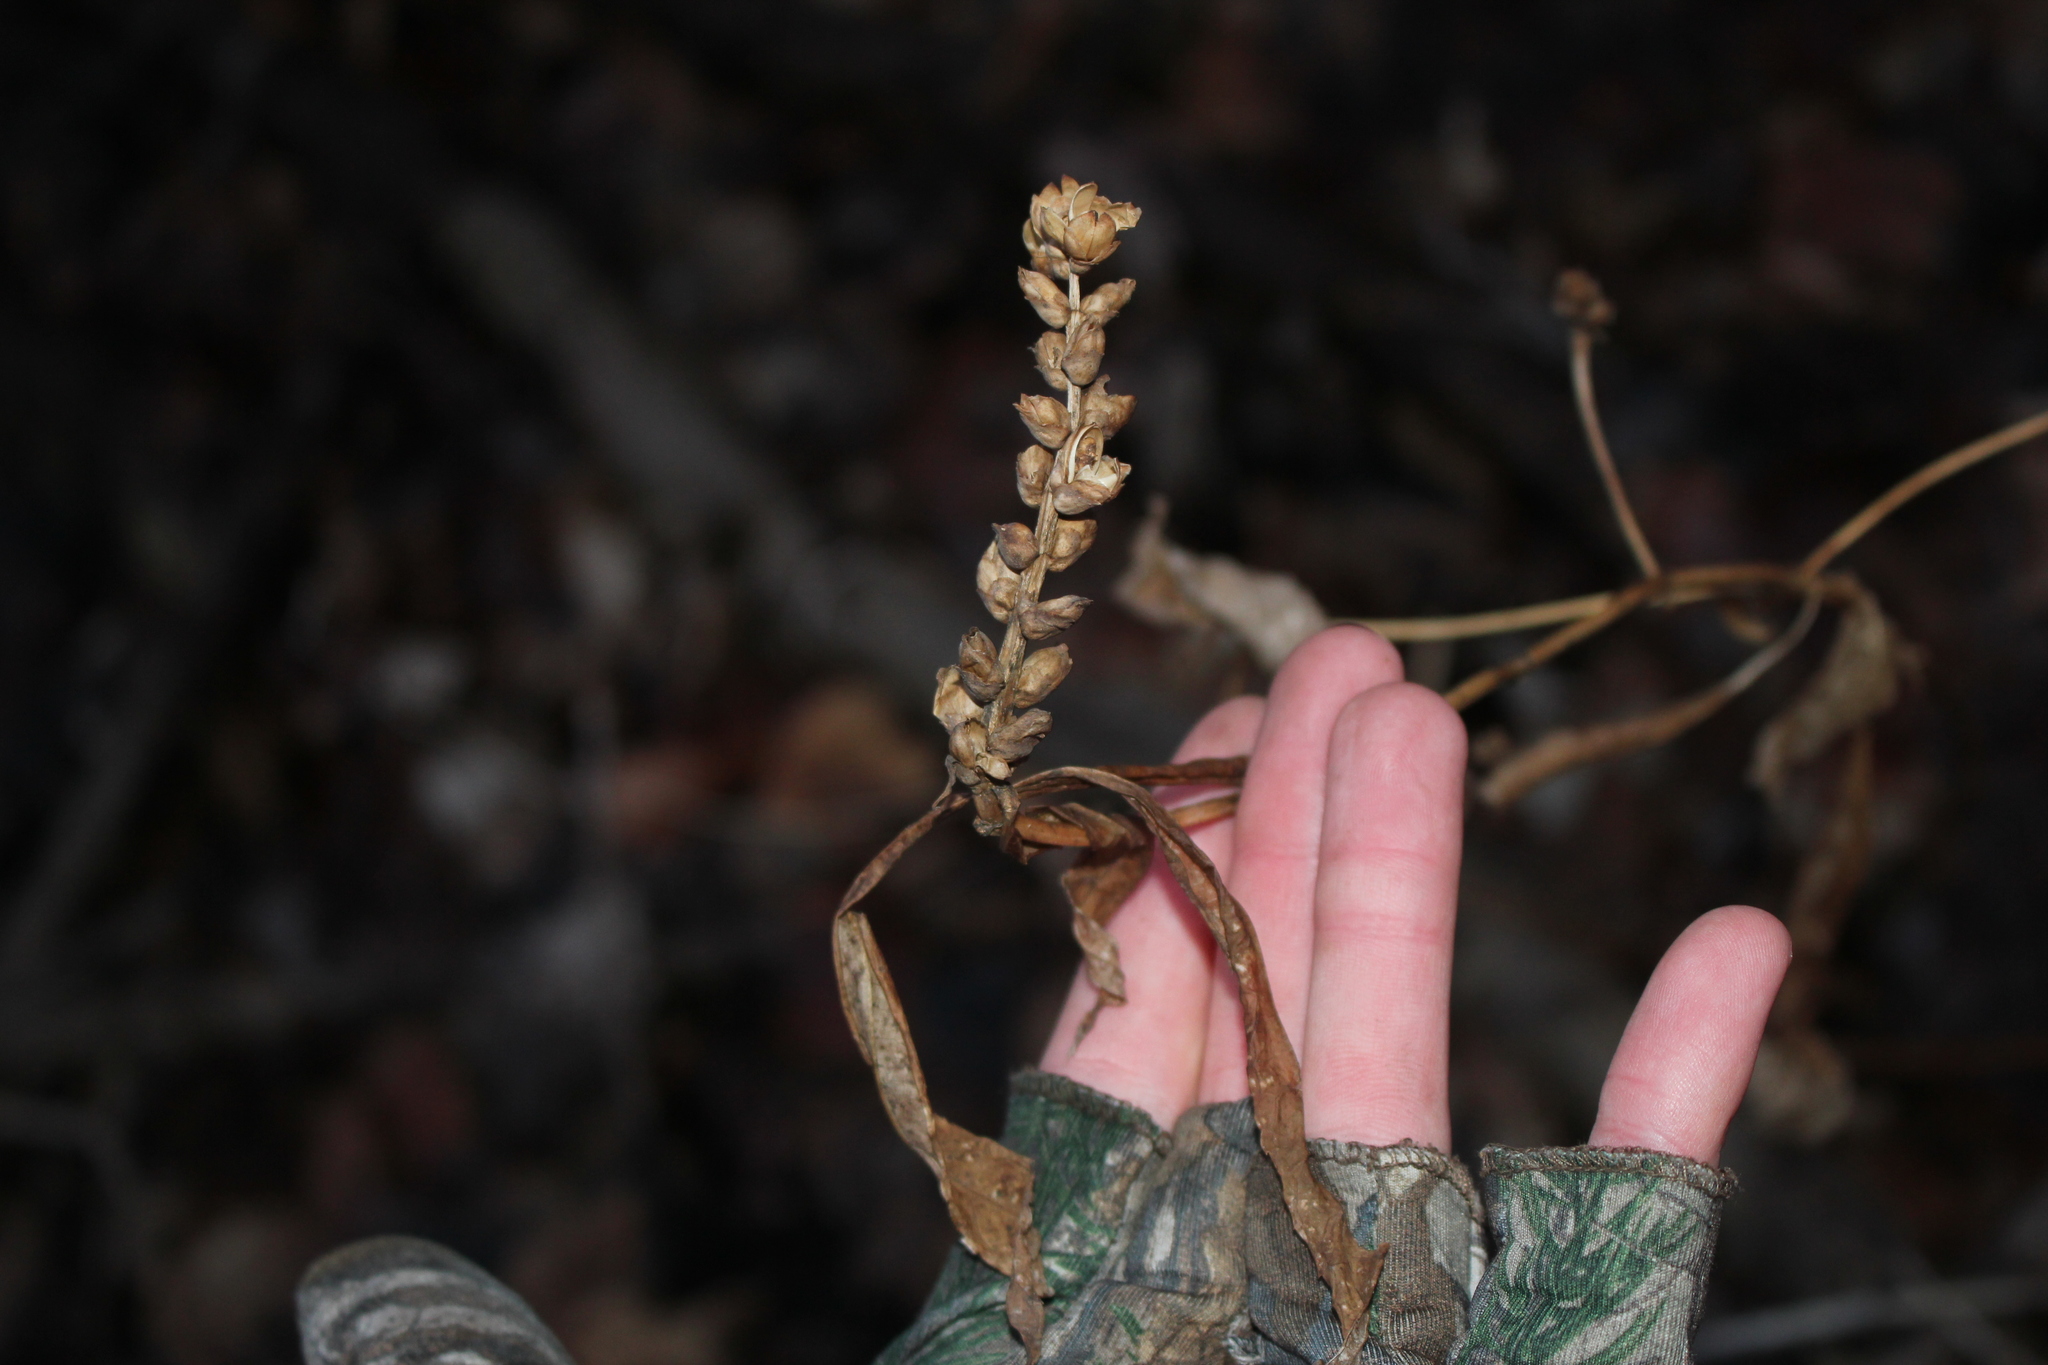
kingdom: Plantae
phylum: Tracheophyta
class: Magnoliopsida
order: Lamiales
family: Plantaginaceae
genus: Chelone
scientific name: Chelone glabra
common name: Snakehead
